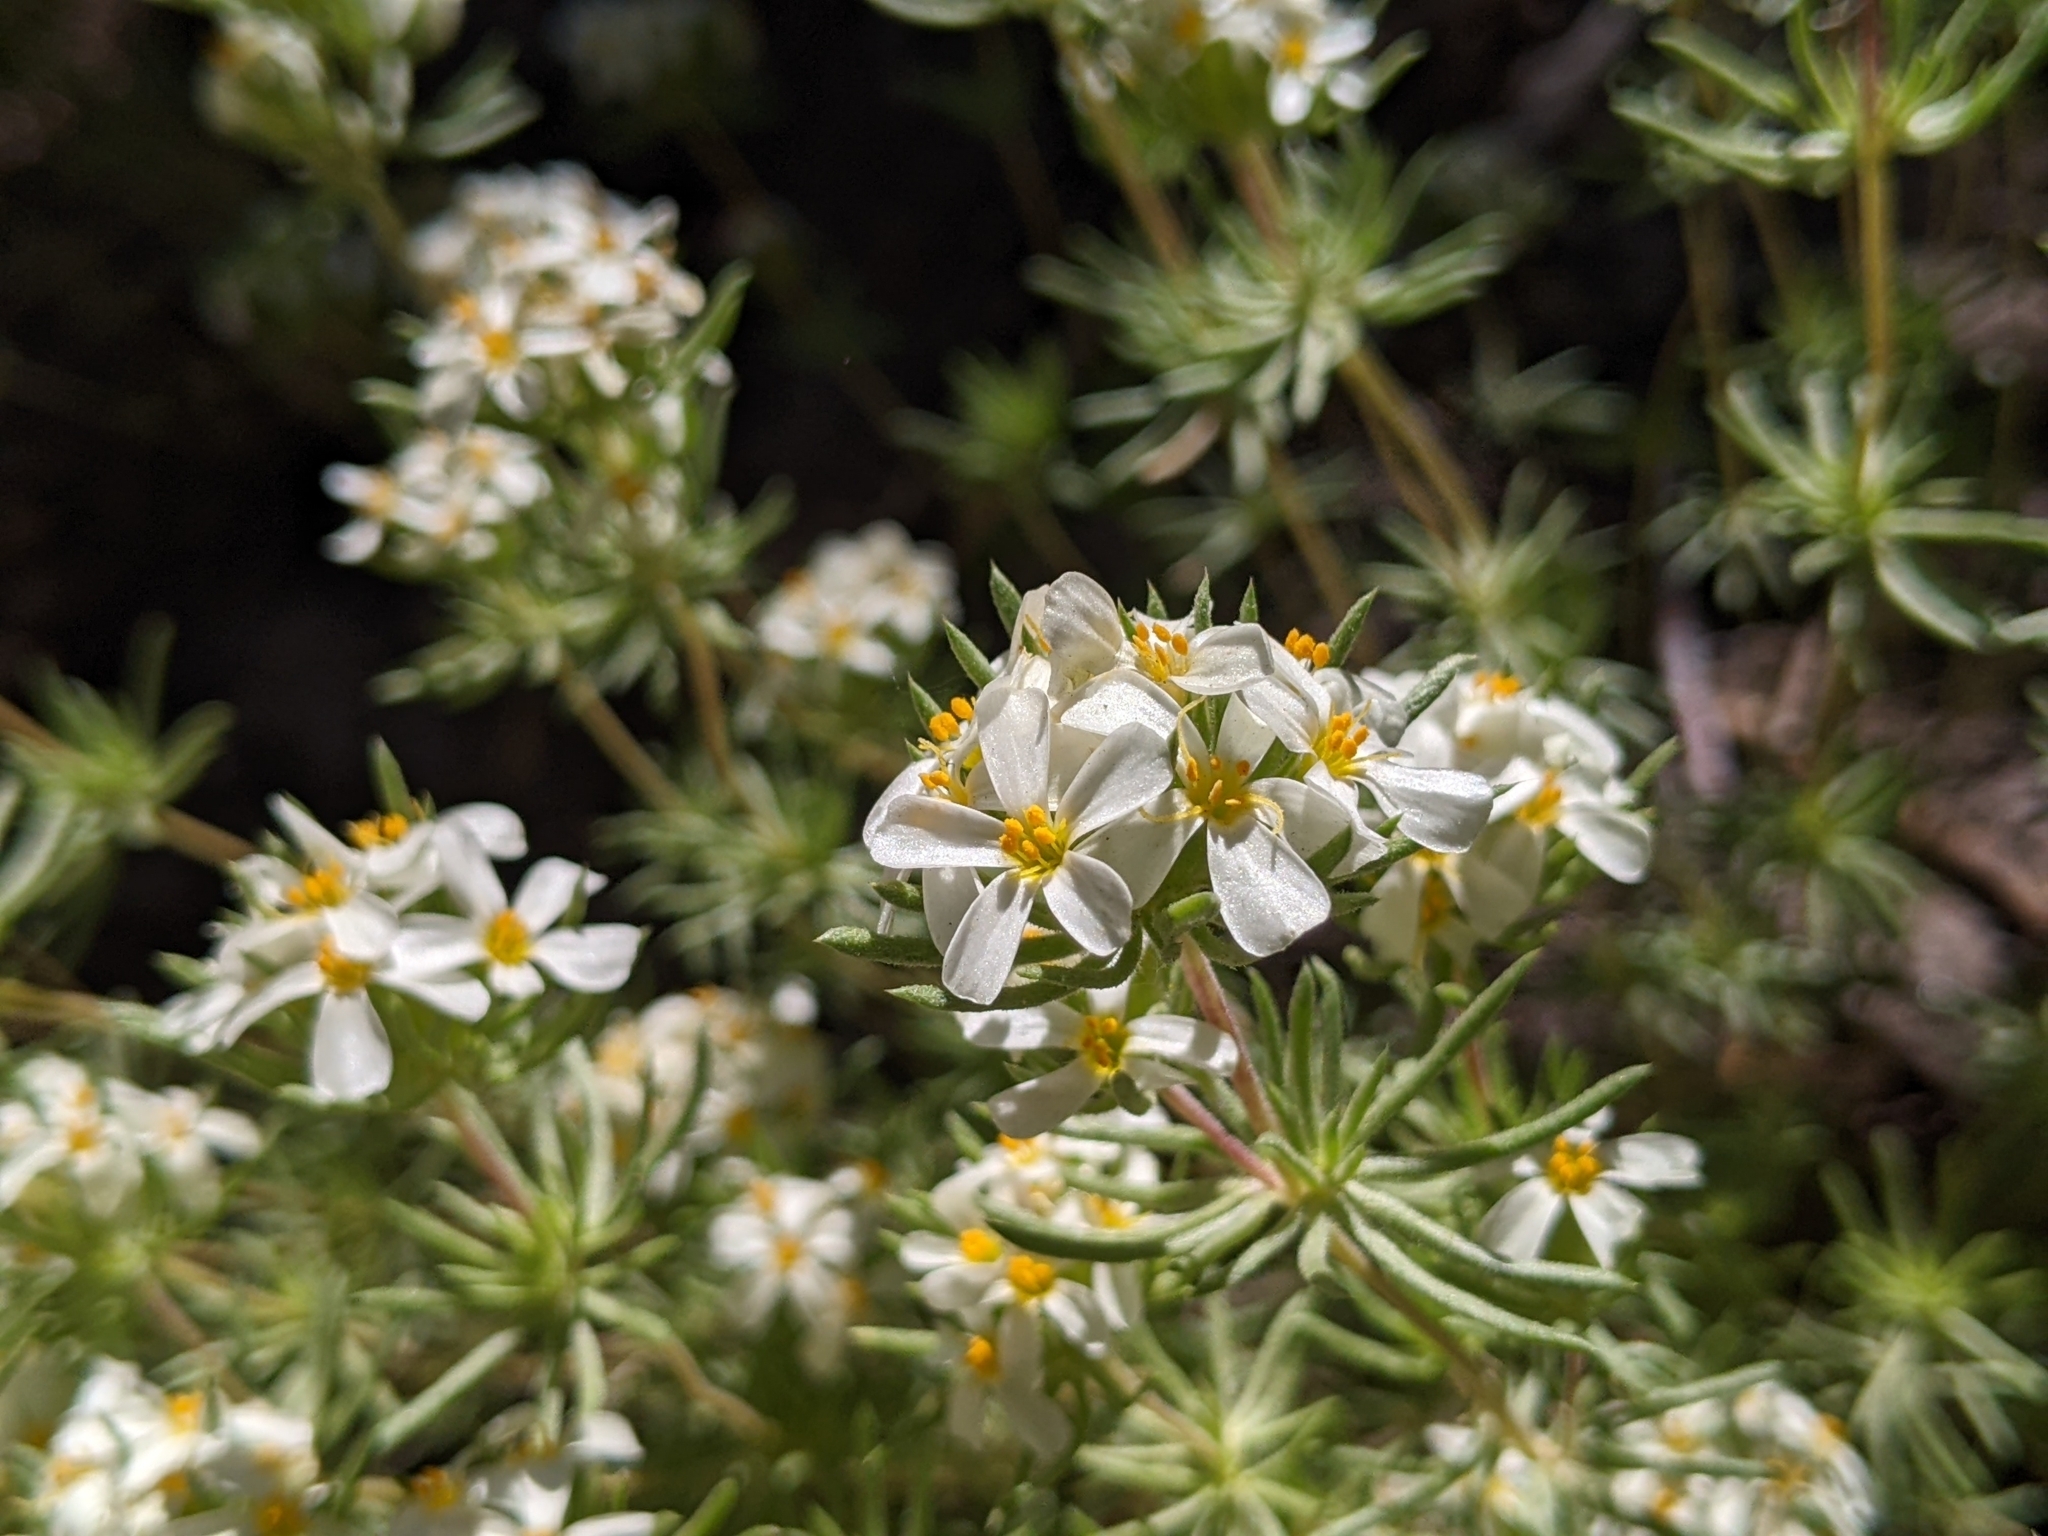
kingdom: Plantae
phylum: Tracheophyta
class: Magnoliopsida
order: Ericales
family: Polemoniaceae
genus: Leptosiphon
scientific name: Leptosiphon nuttallii
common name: Nuttall's linanthus
